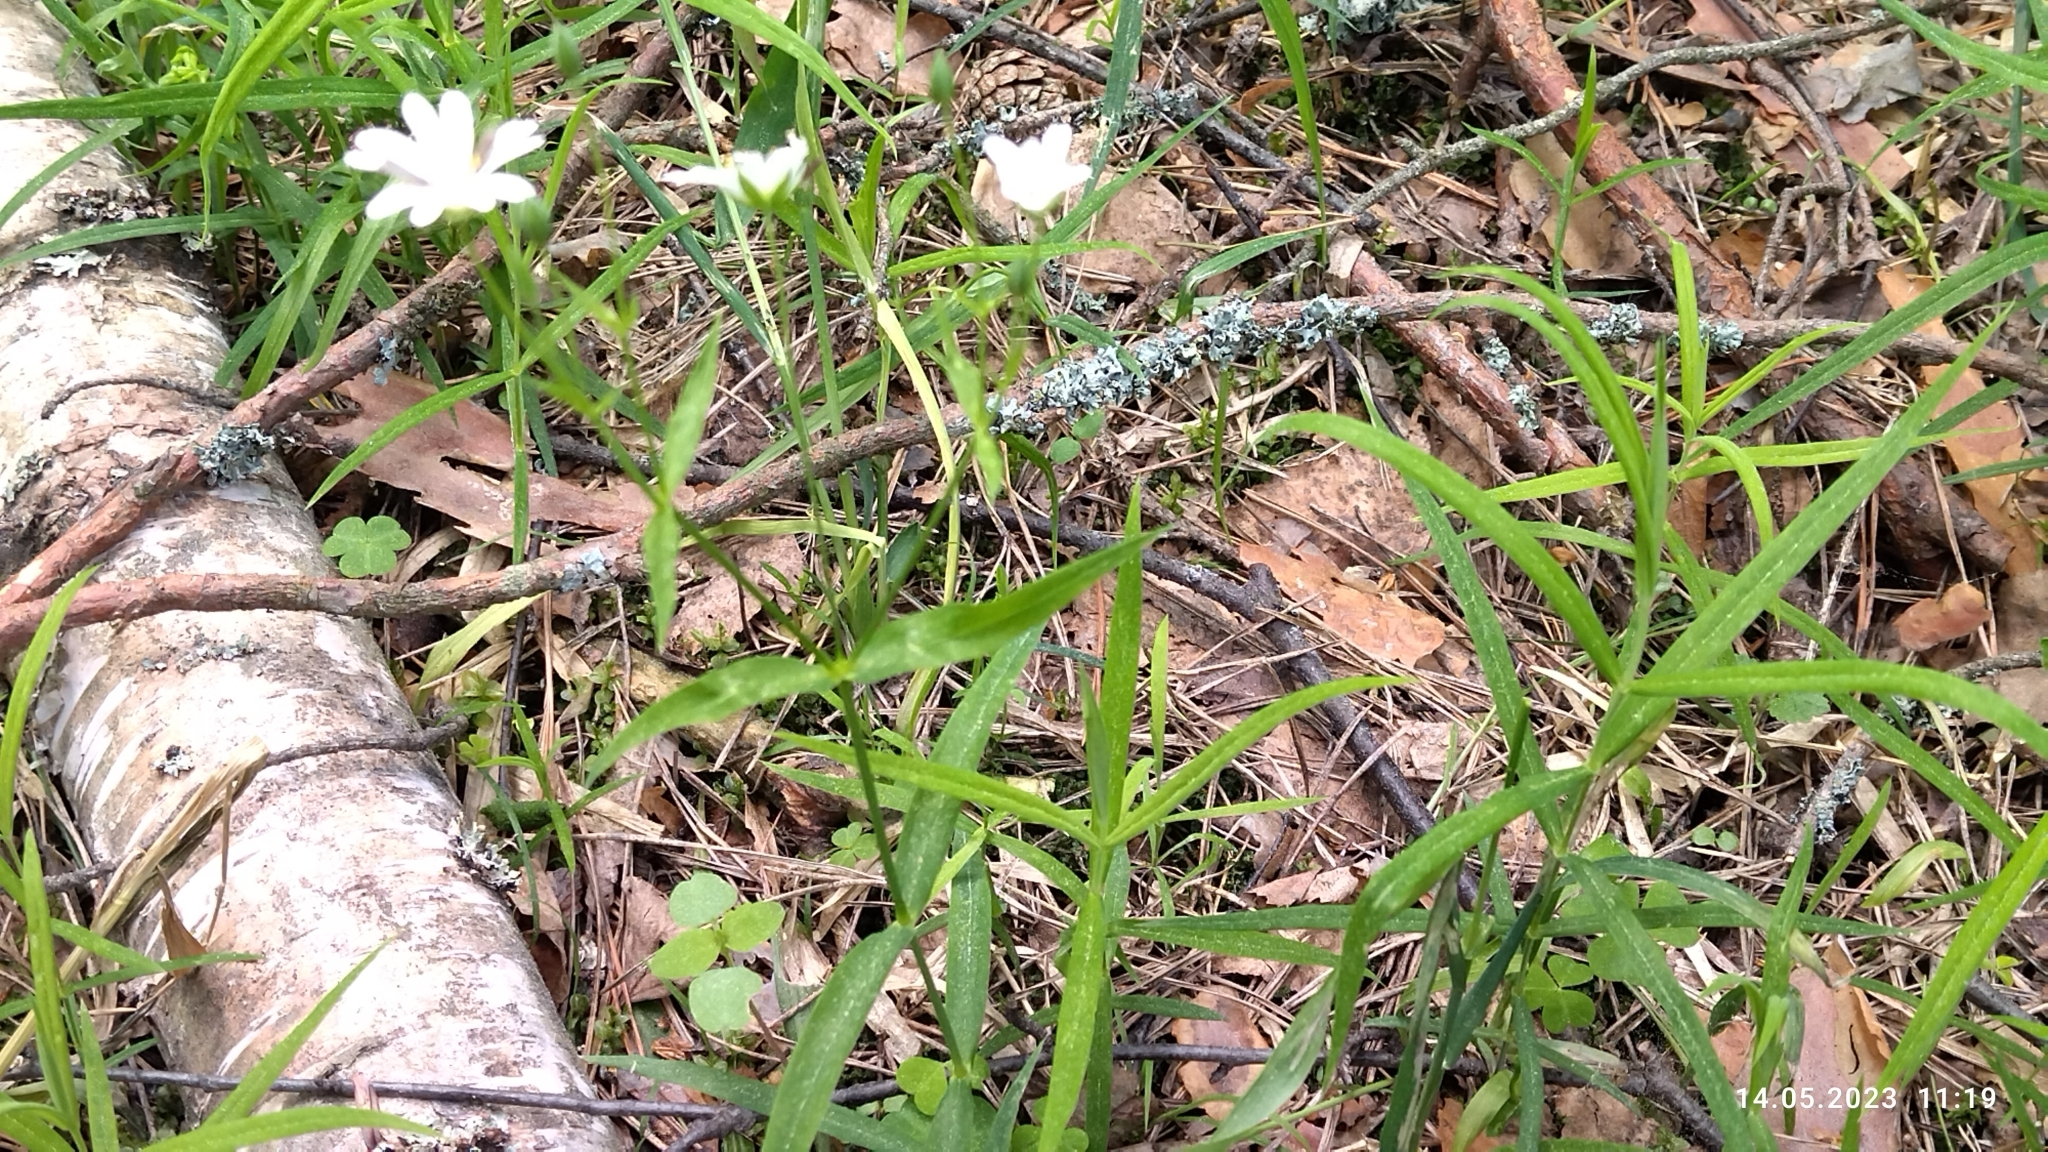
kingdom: Plantae
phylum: Tracheophyta
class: Magnoliopsida
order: Caryophyllales
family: Caryophyllaceae
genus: Rabelera
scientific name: Rabelera holostea
